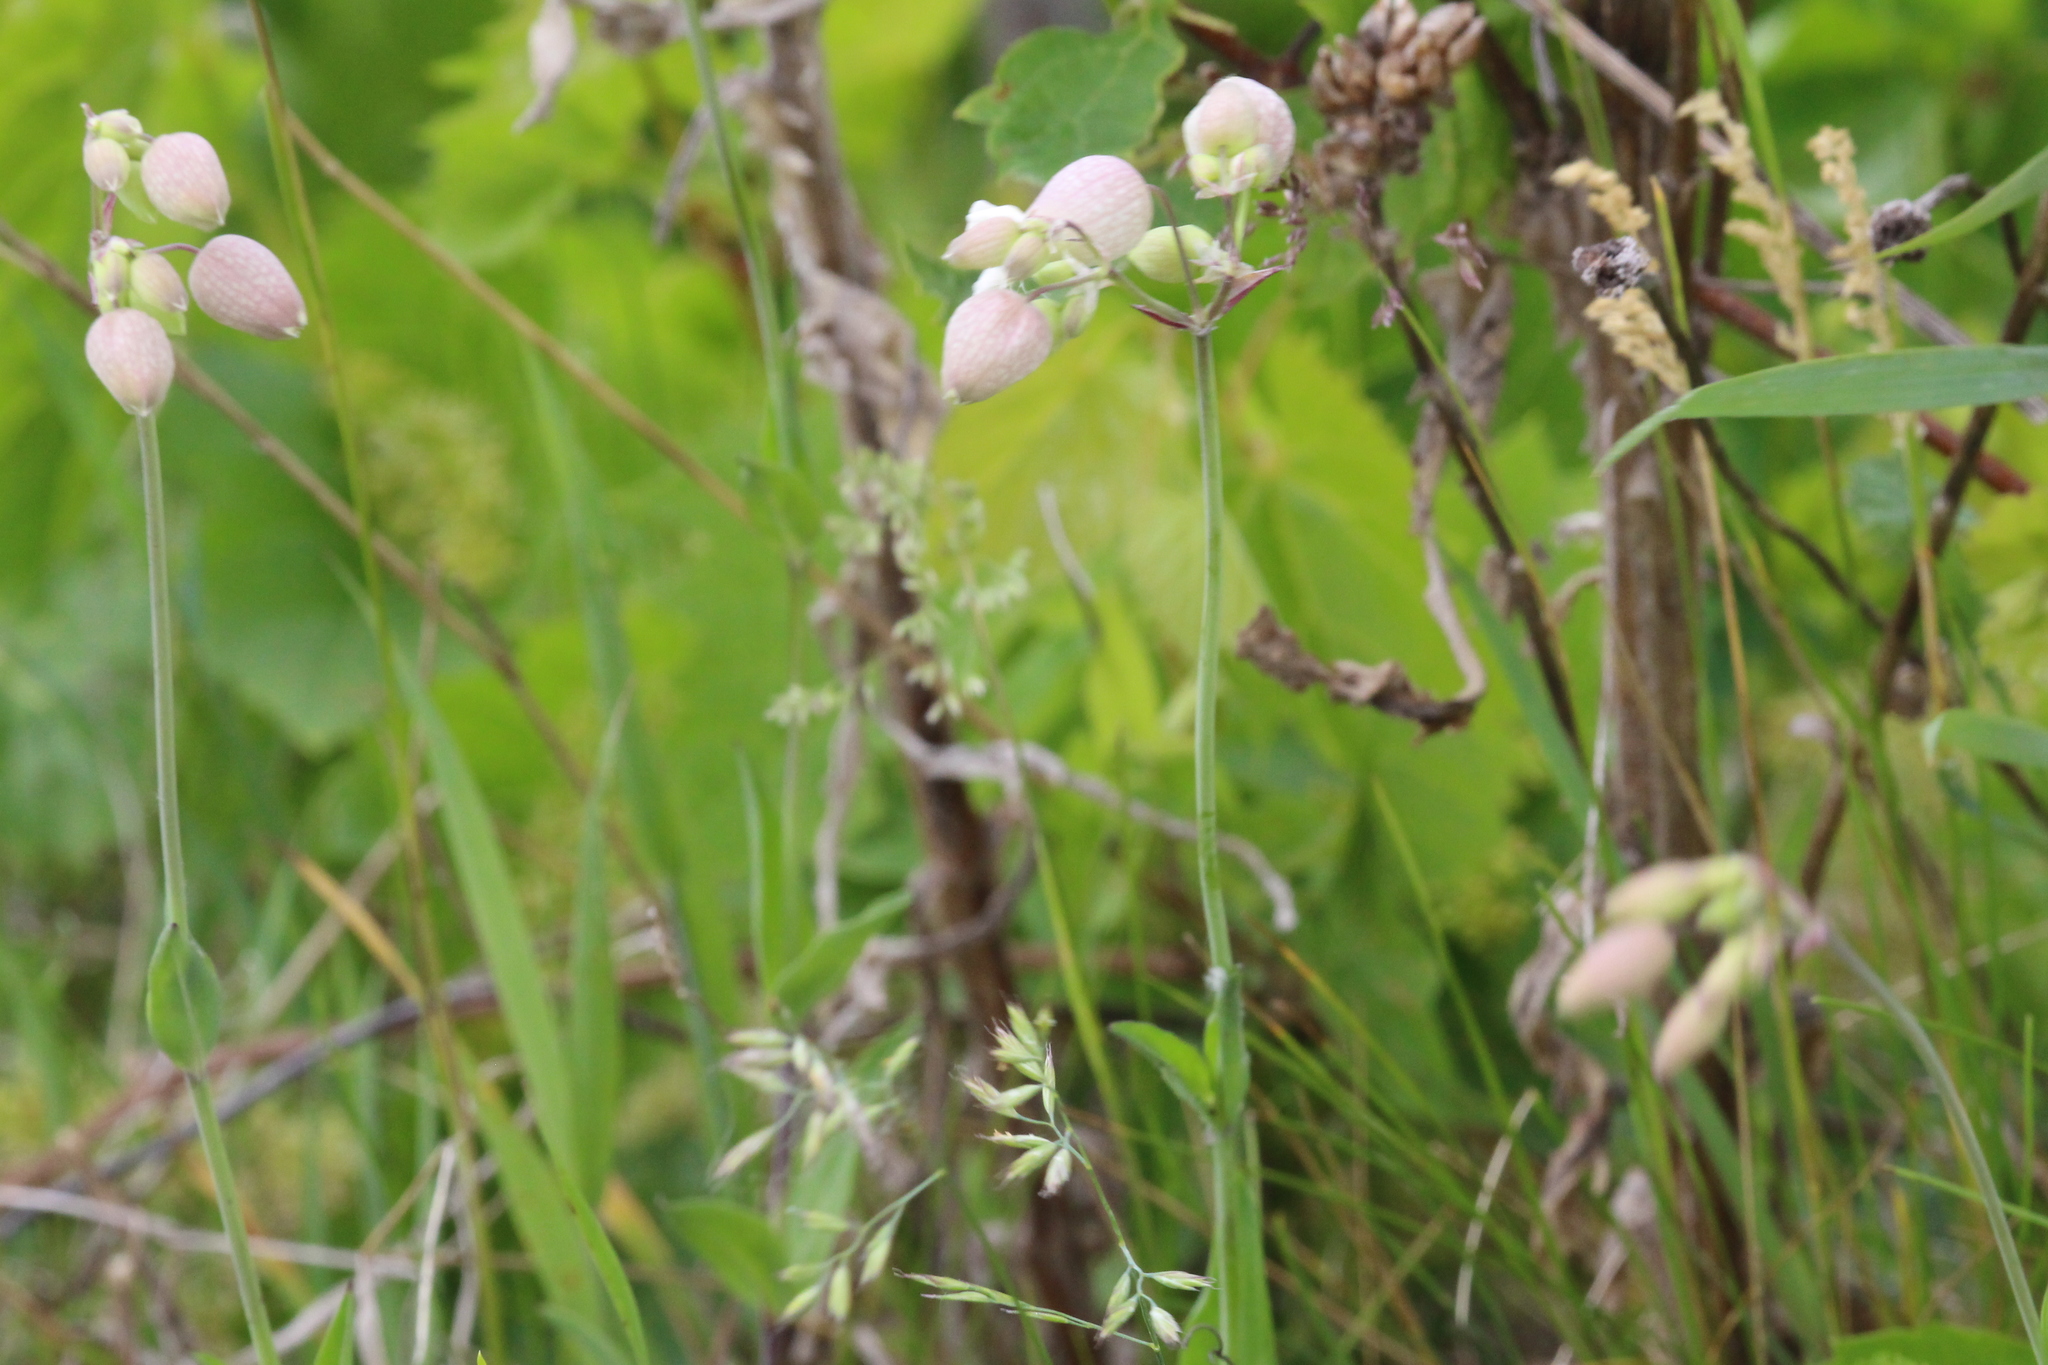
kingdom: Plantae
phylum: Tracheophyta
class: Magnoliopsida
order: Caryophyllales
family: Caryophyllaceae
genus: Silene
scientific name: Silene vulgaris
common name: Bladder campion
